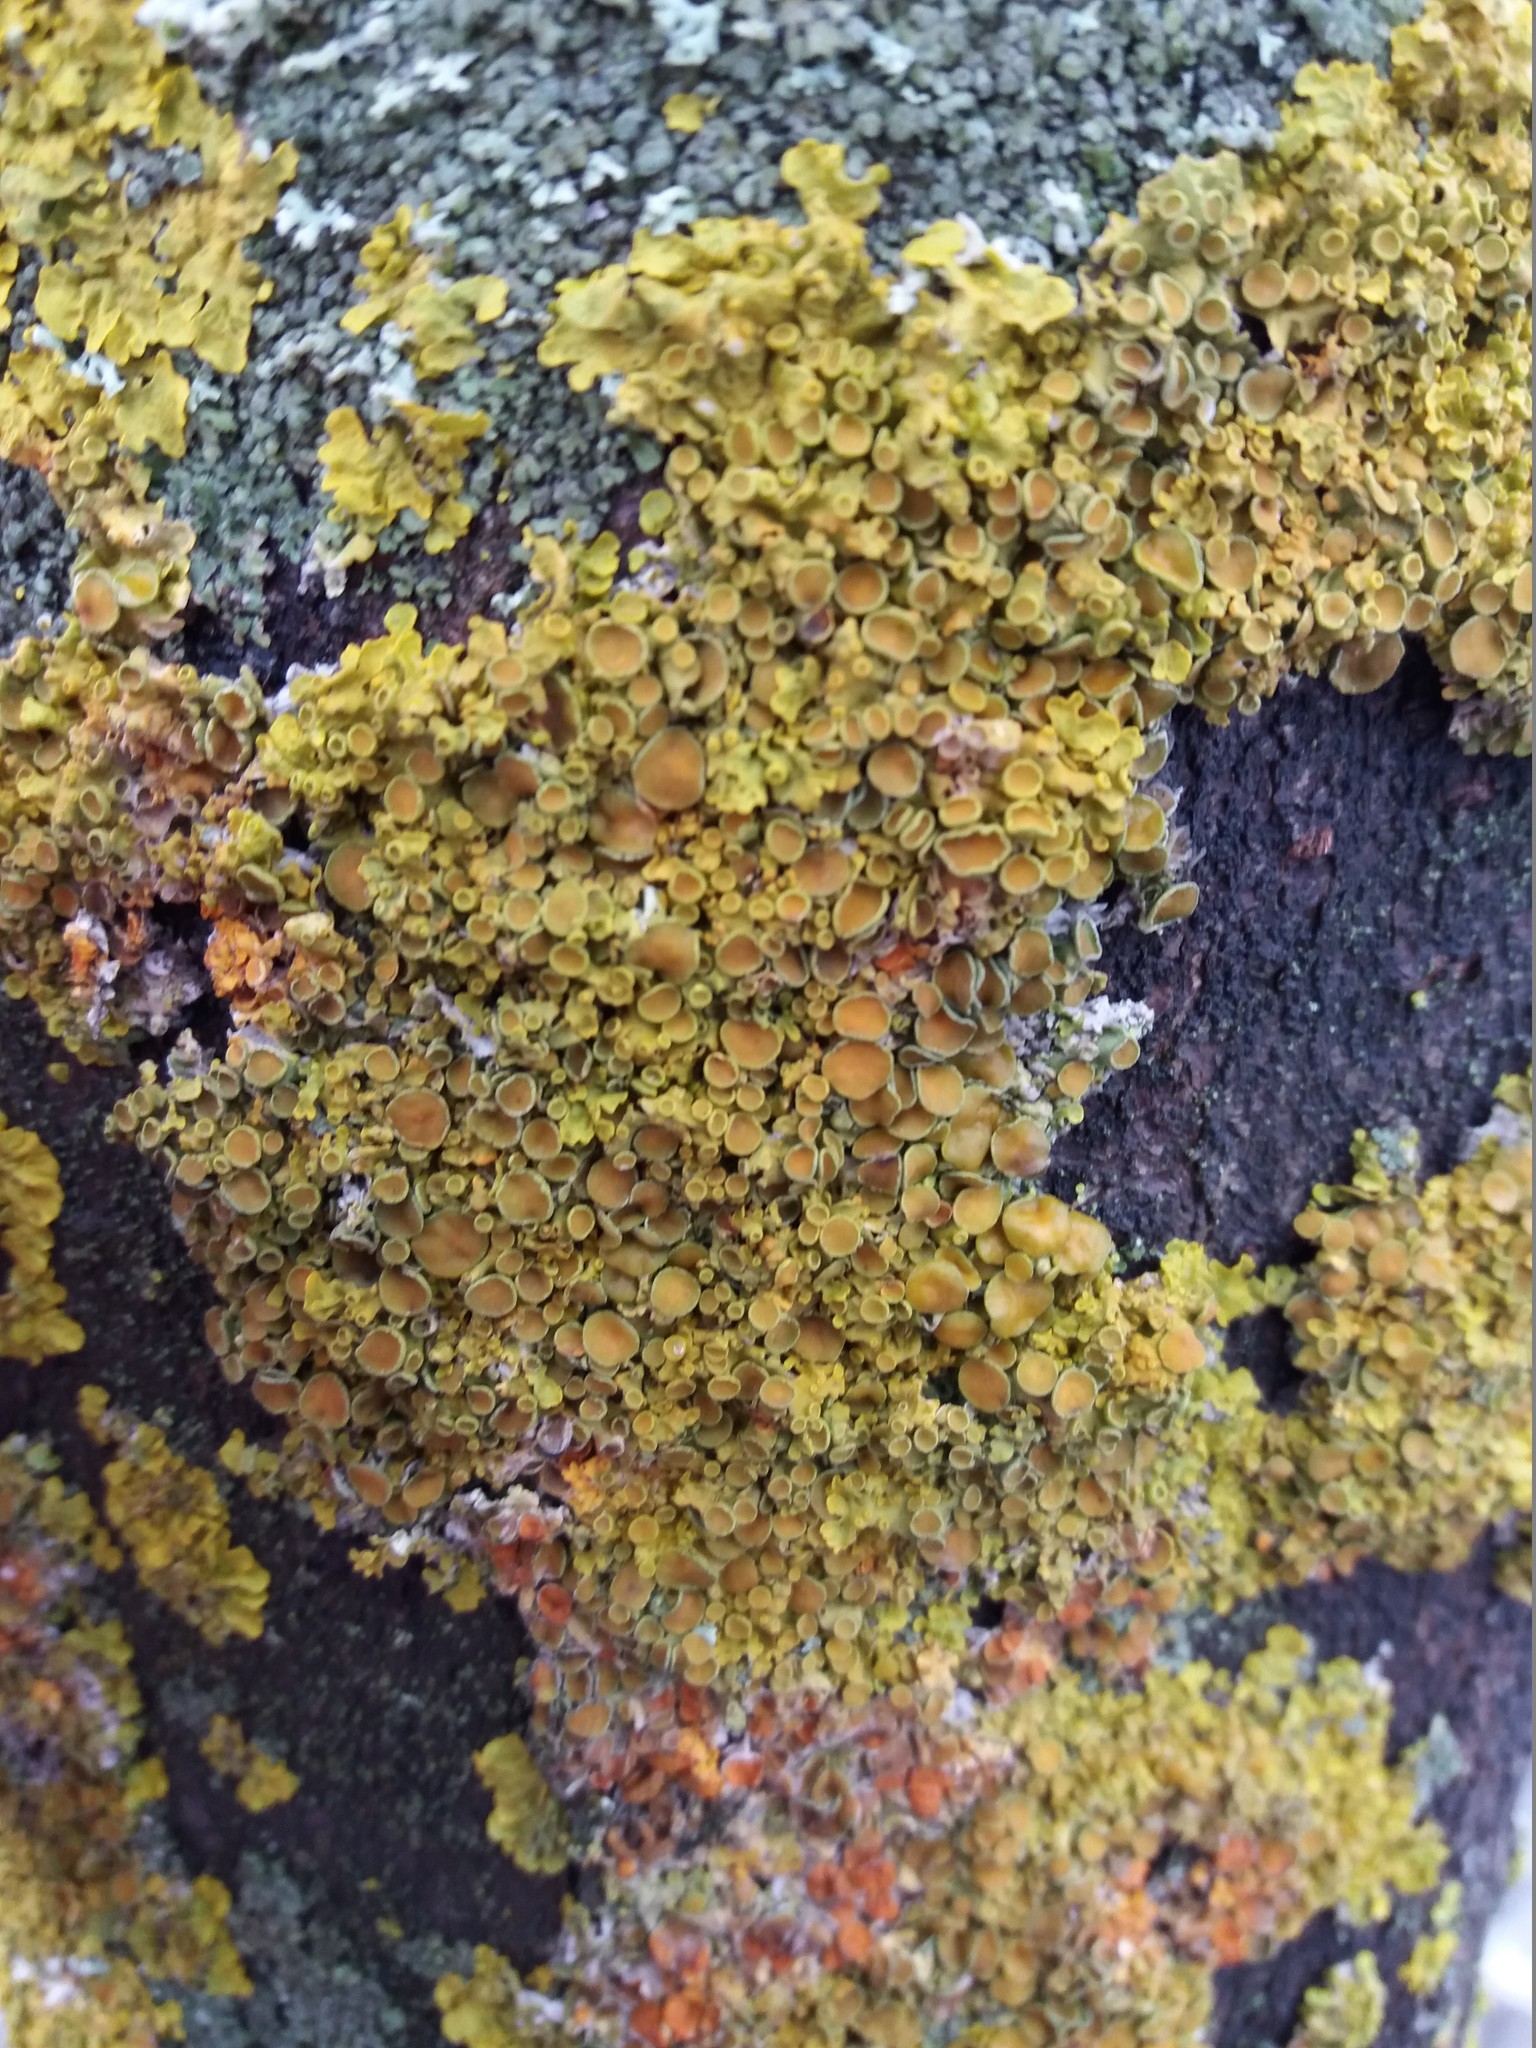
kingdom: Fungi
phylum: Ascomycota
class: Lecanoromycetes
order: Teloschistales
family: Teloschistaceae
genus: Xanthoria
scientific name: Xanthoria parietina
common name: Common orange lichen
